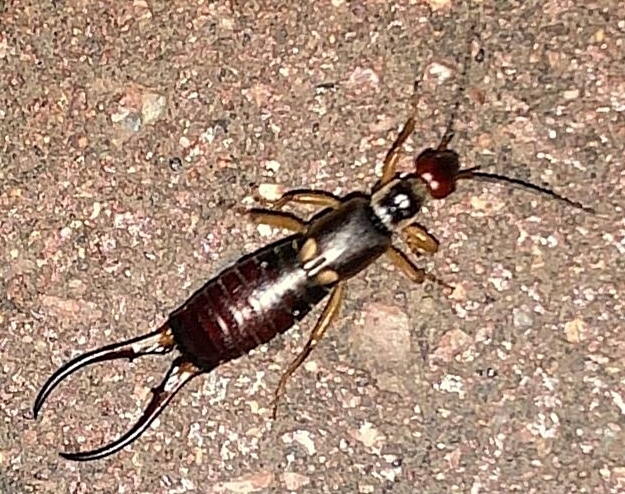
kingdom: Animalia
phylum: Arthropoda
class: Insecta
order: Dermaptera
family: Forficulidae
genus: Forficula
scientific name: Forficula
